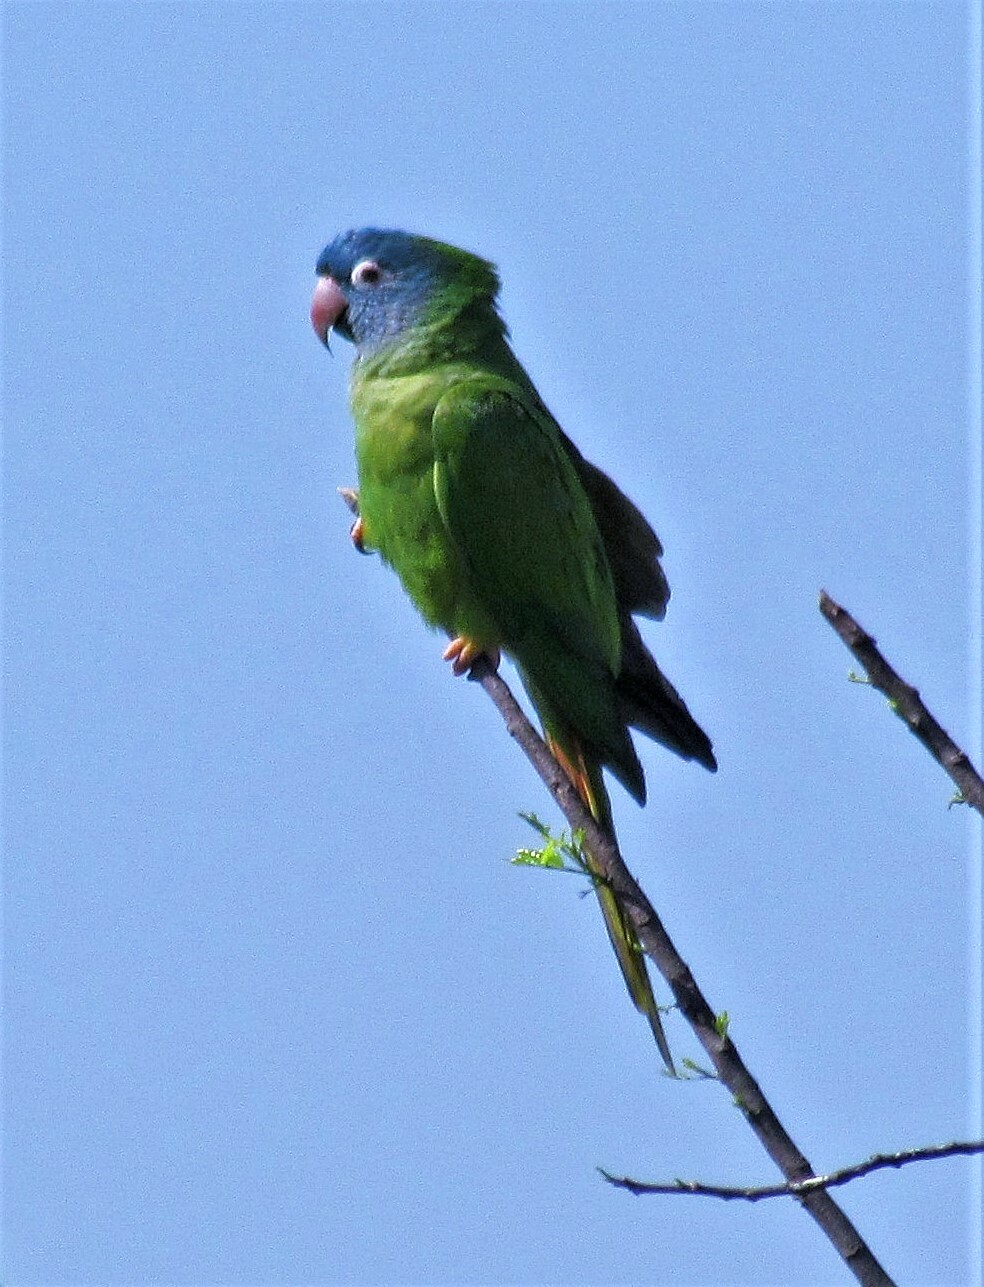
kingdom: Animalia
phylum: Chordata
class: Aves
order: Psittaciformes
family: Psittacidae
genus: Aratinga
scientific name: Aratinga acuticaudata
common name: Blue-crowned parakeet
